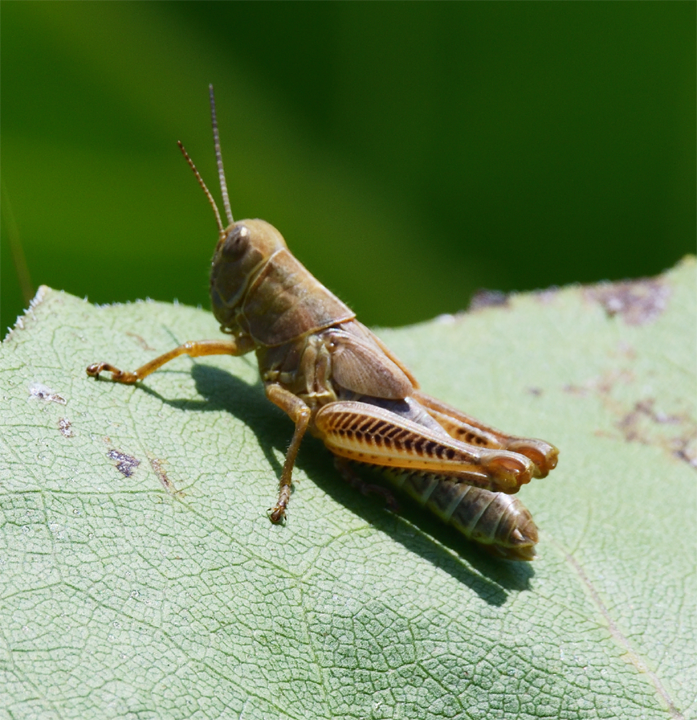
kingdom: Animalia
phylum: Arthropoda
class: Insecta
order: Orthoptera
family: Acrididae
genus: Melanoplus
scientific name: Melanoplus differentialis
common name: Differential grasshopper
